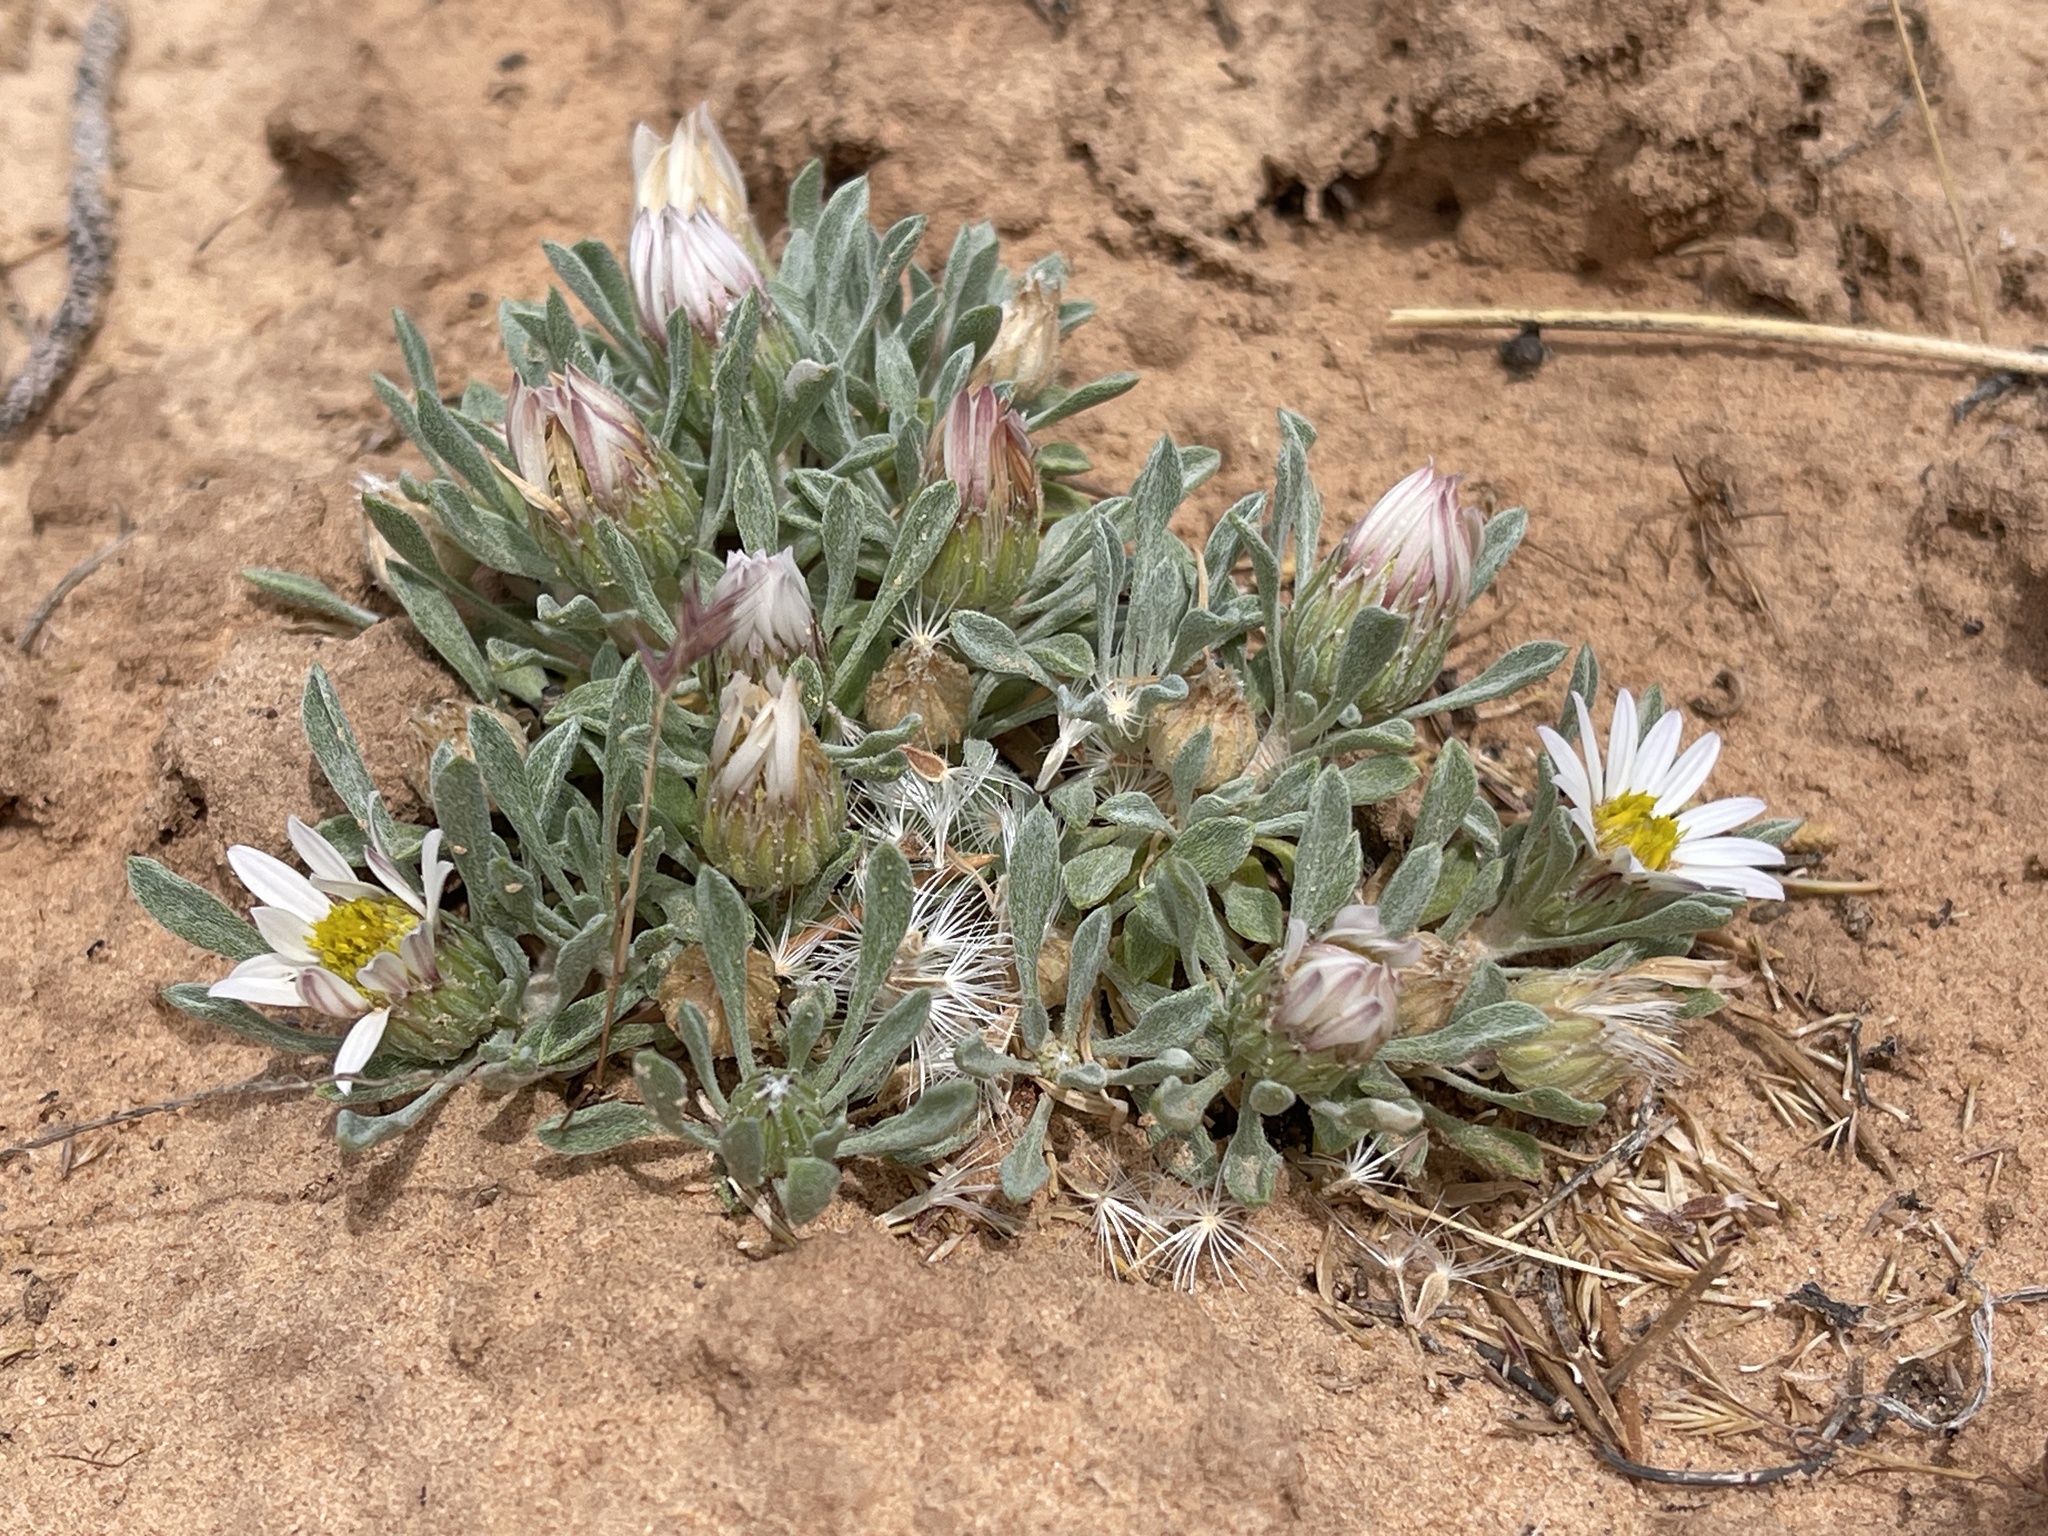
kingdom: Plantae
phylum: Tracheophyta
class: Magnoliopsida
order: Asterales
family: Asteraceae
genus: Townsendia
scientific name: Townsendia incana
